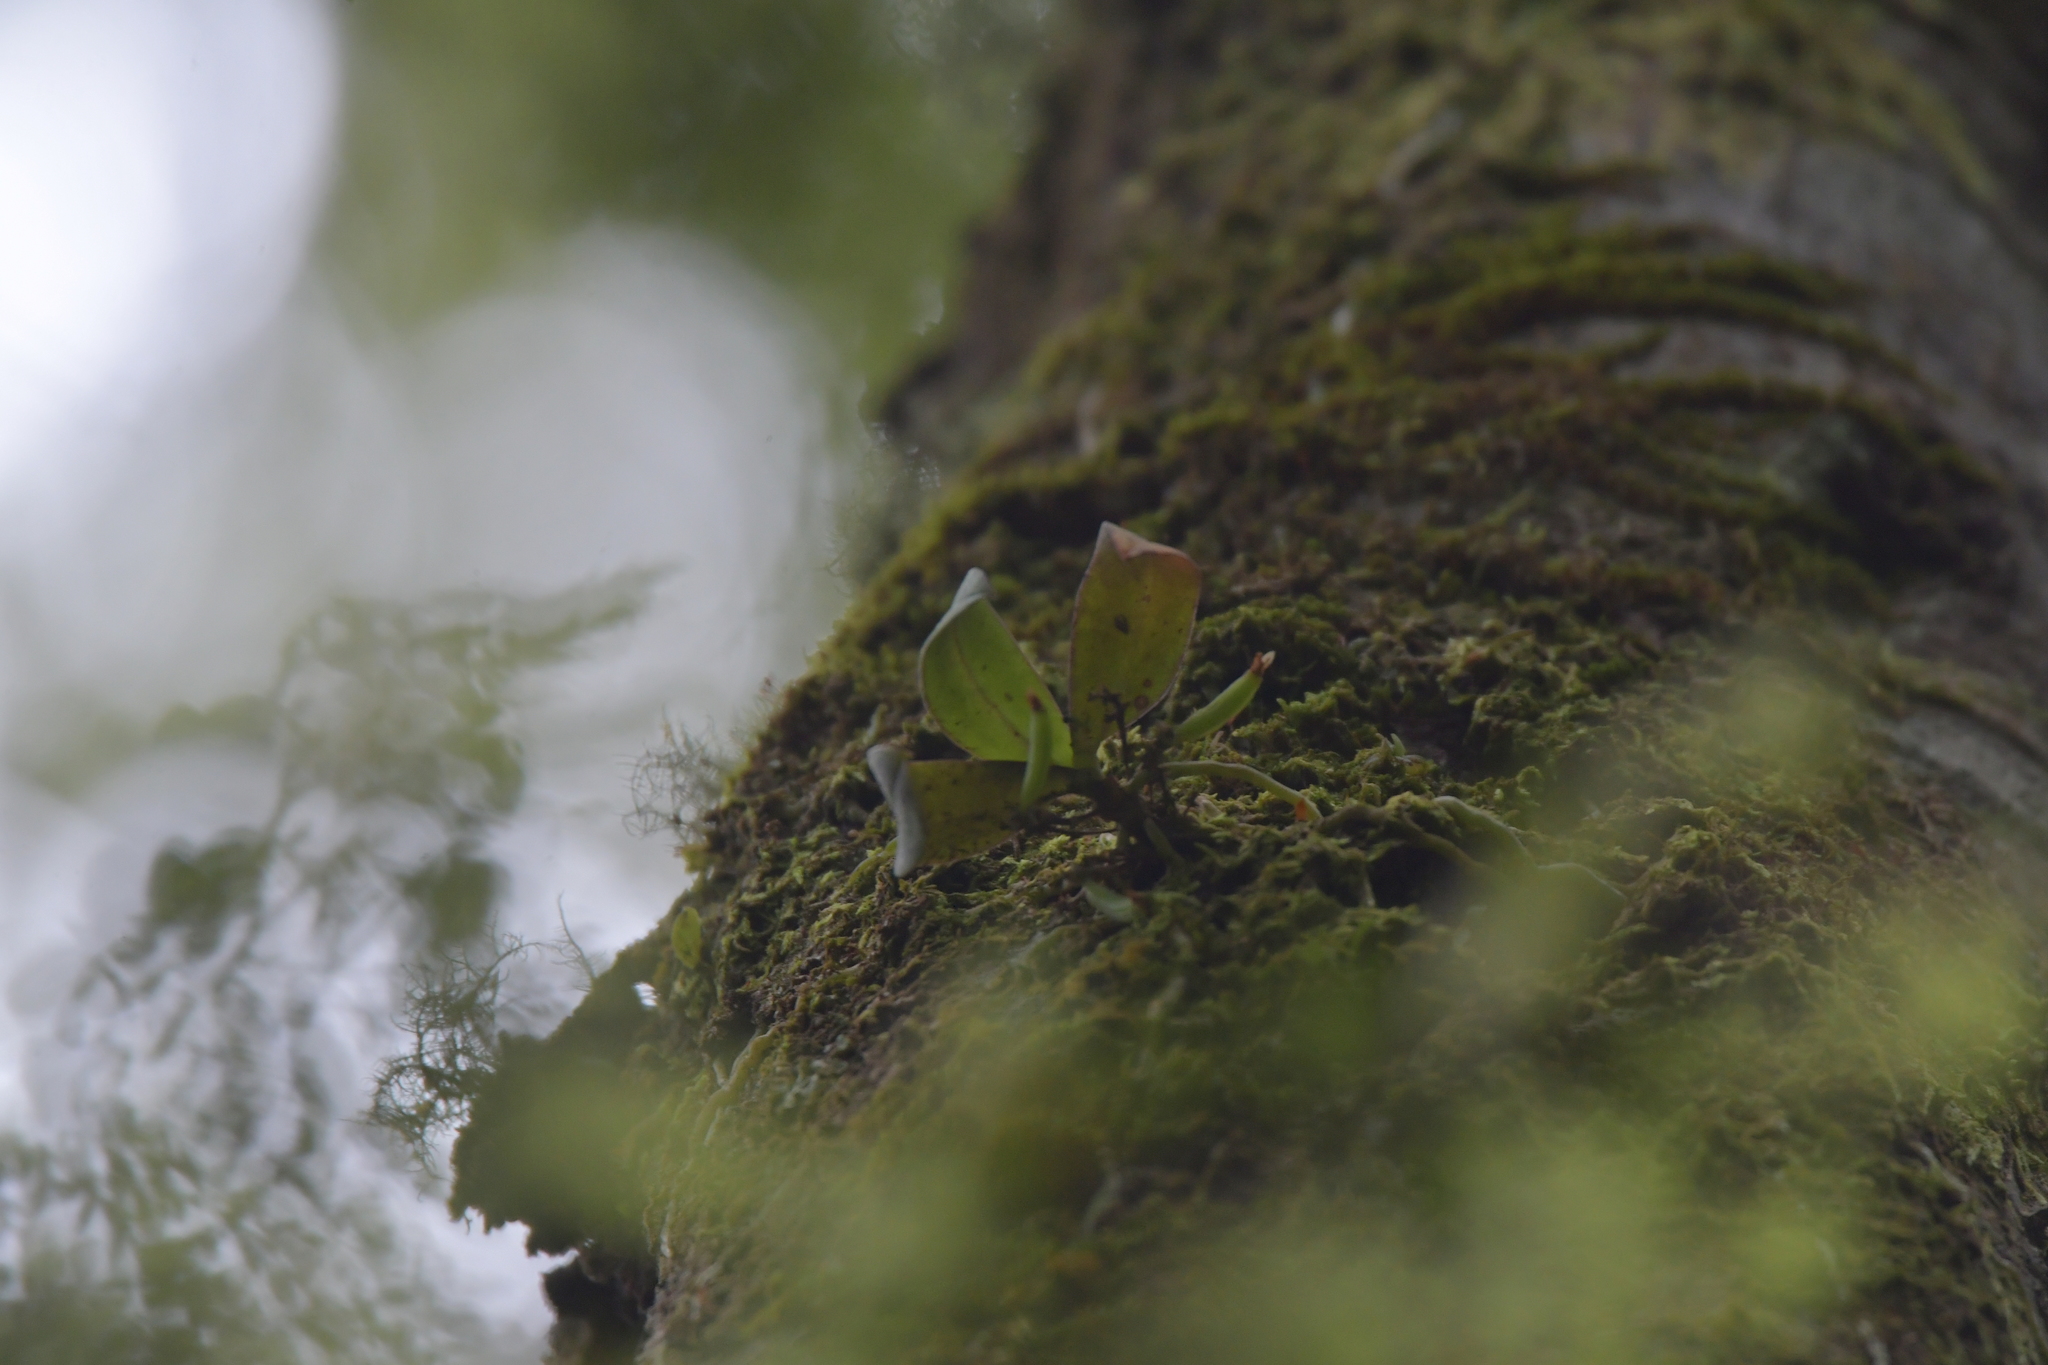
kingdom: Plantae
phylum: Tracheophyta
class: Liliopsida
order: Asparagales
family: Orchidaceae
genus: Drymoanthus
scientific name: Drymoanthus adversus
